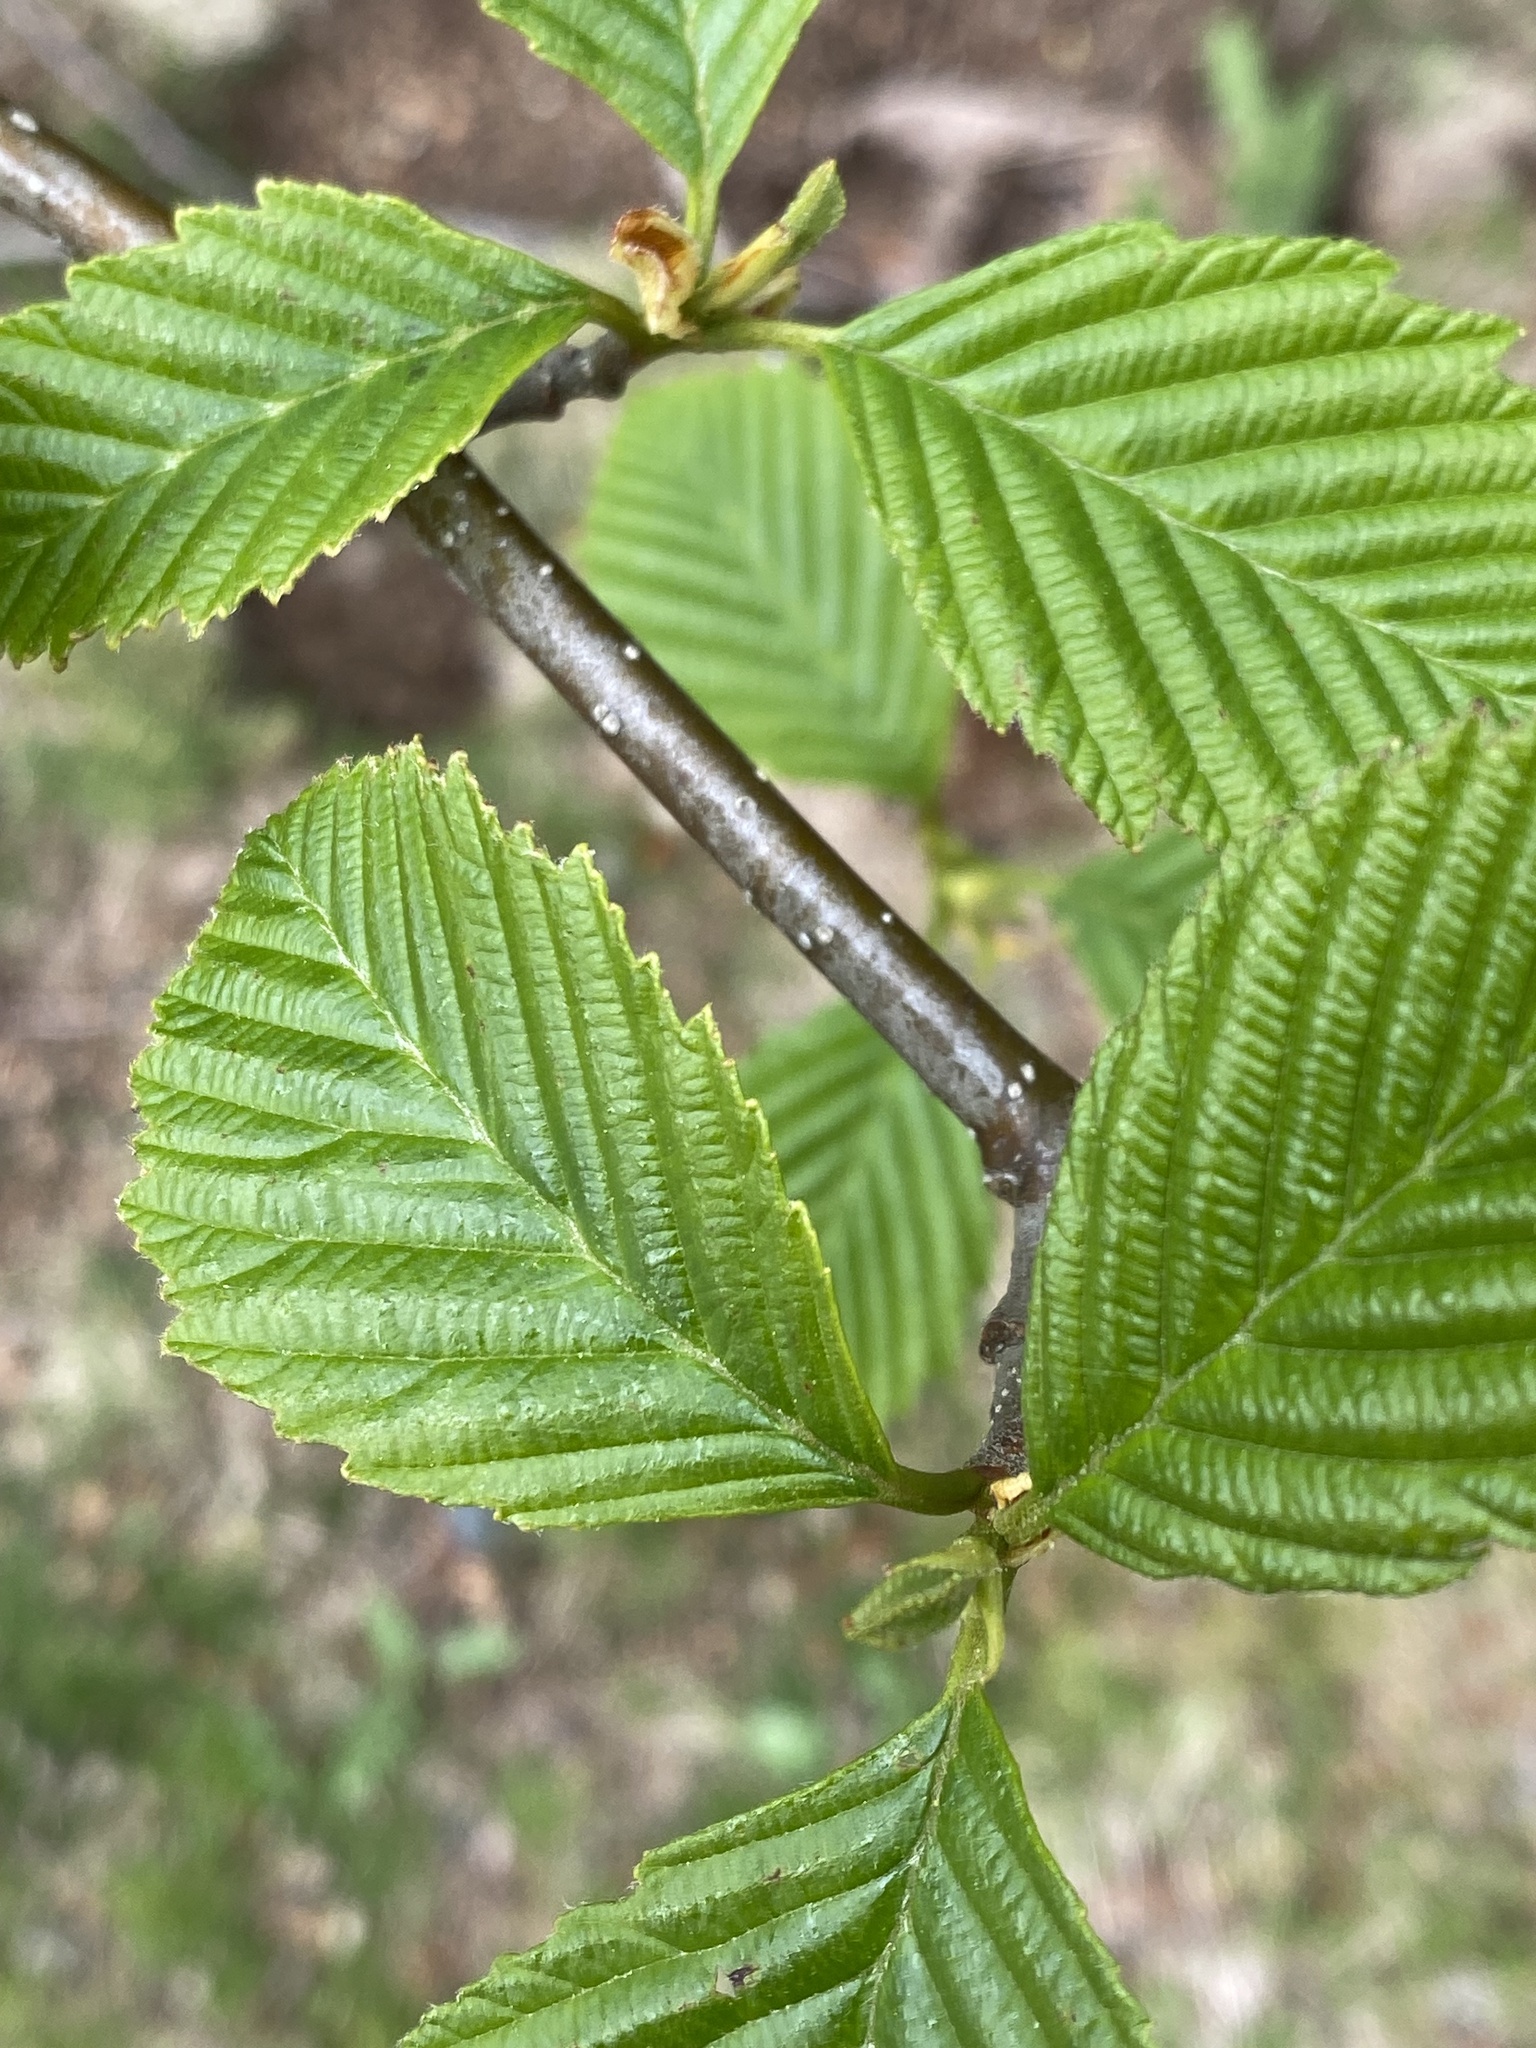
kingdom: Plantae
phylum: Tracheophyta
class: Magnoliopsida
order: Fagales
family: Betulaceae
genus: Alnus
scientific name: Alnus rubra
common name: Red alder
